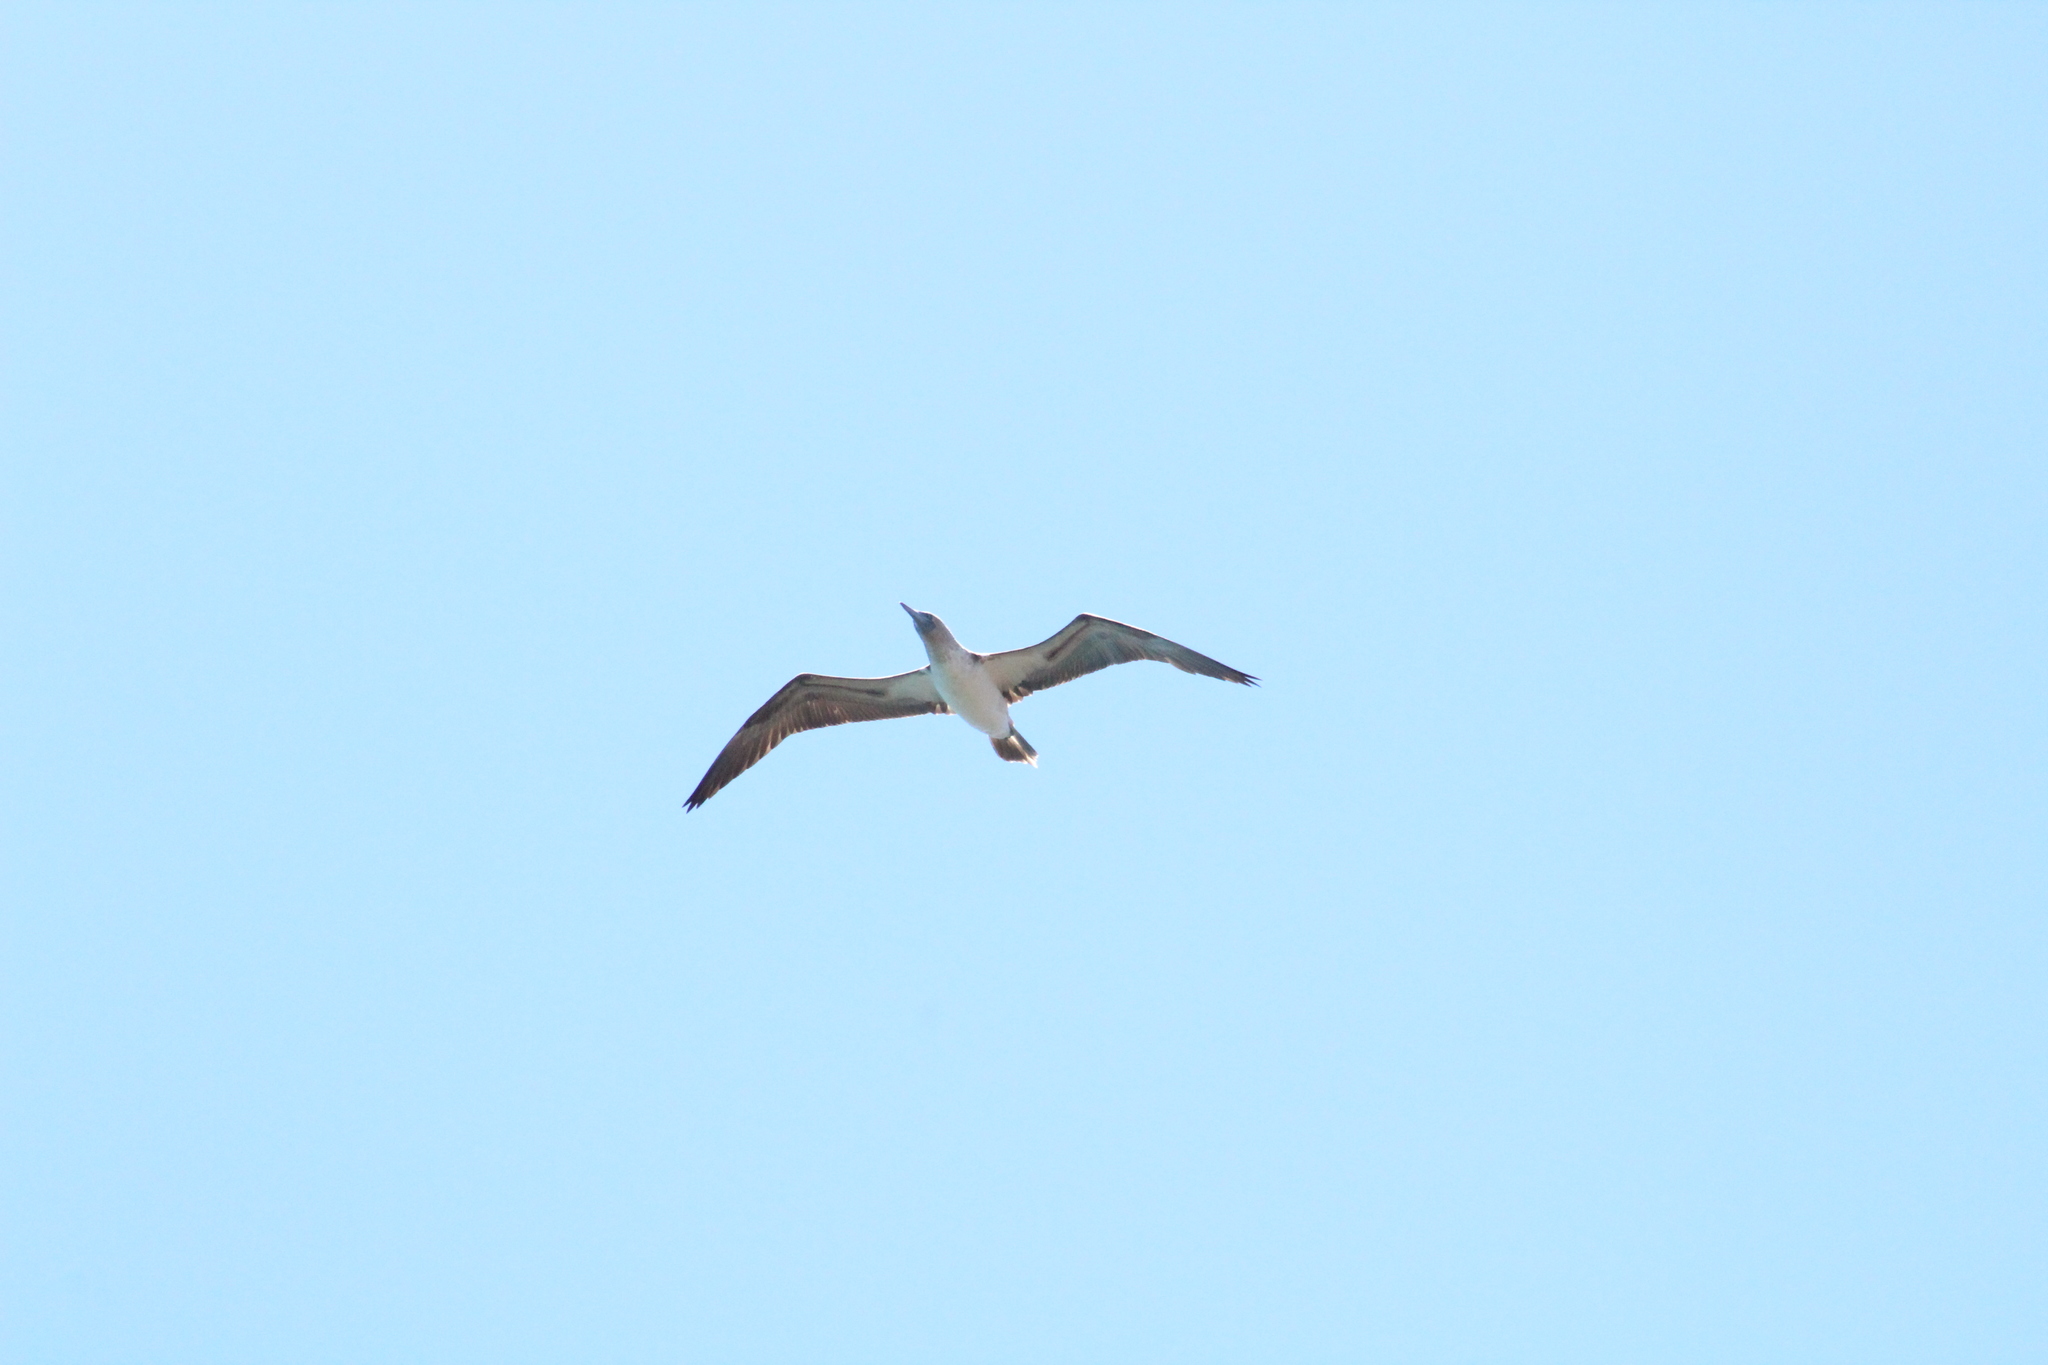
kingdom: Animalia
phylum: Chordata
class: Aves
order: Suliformes
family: Sulidae
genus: Sula
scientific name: Sula nebouxii
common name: Blue-footed booby
